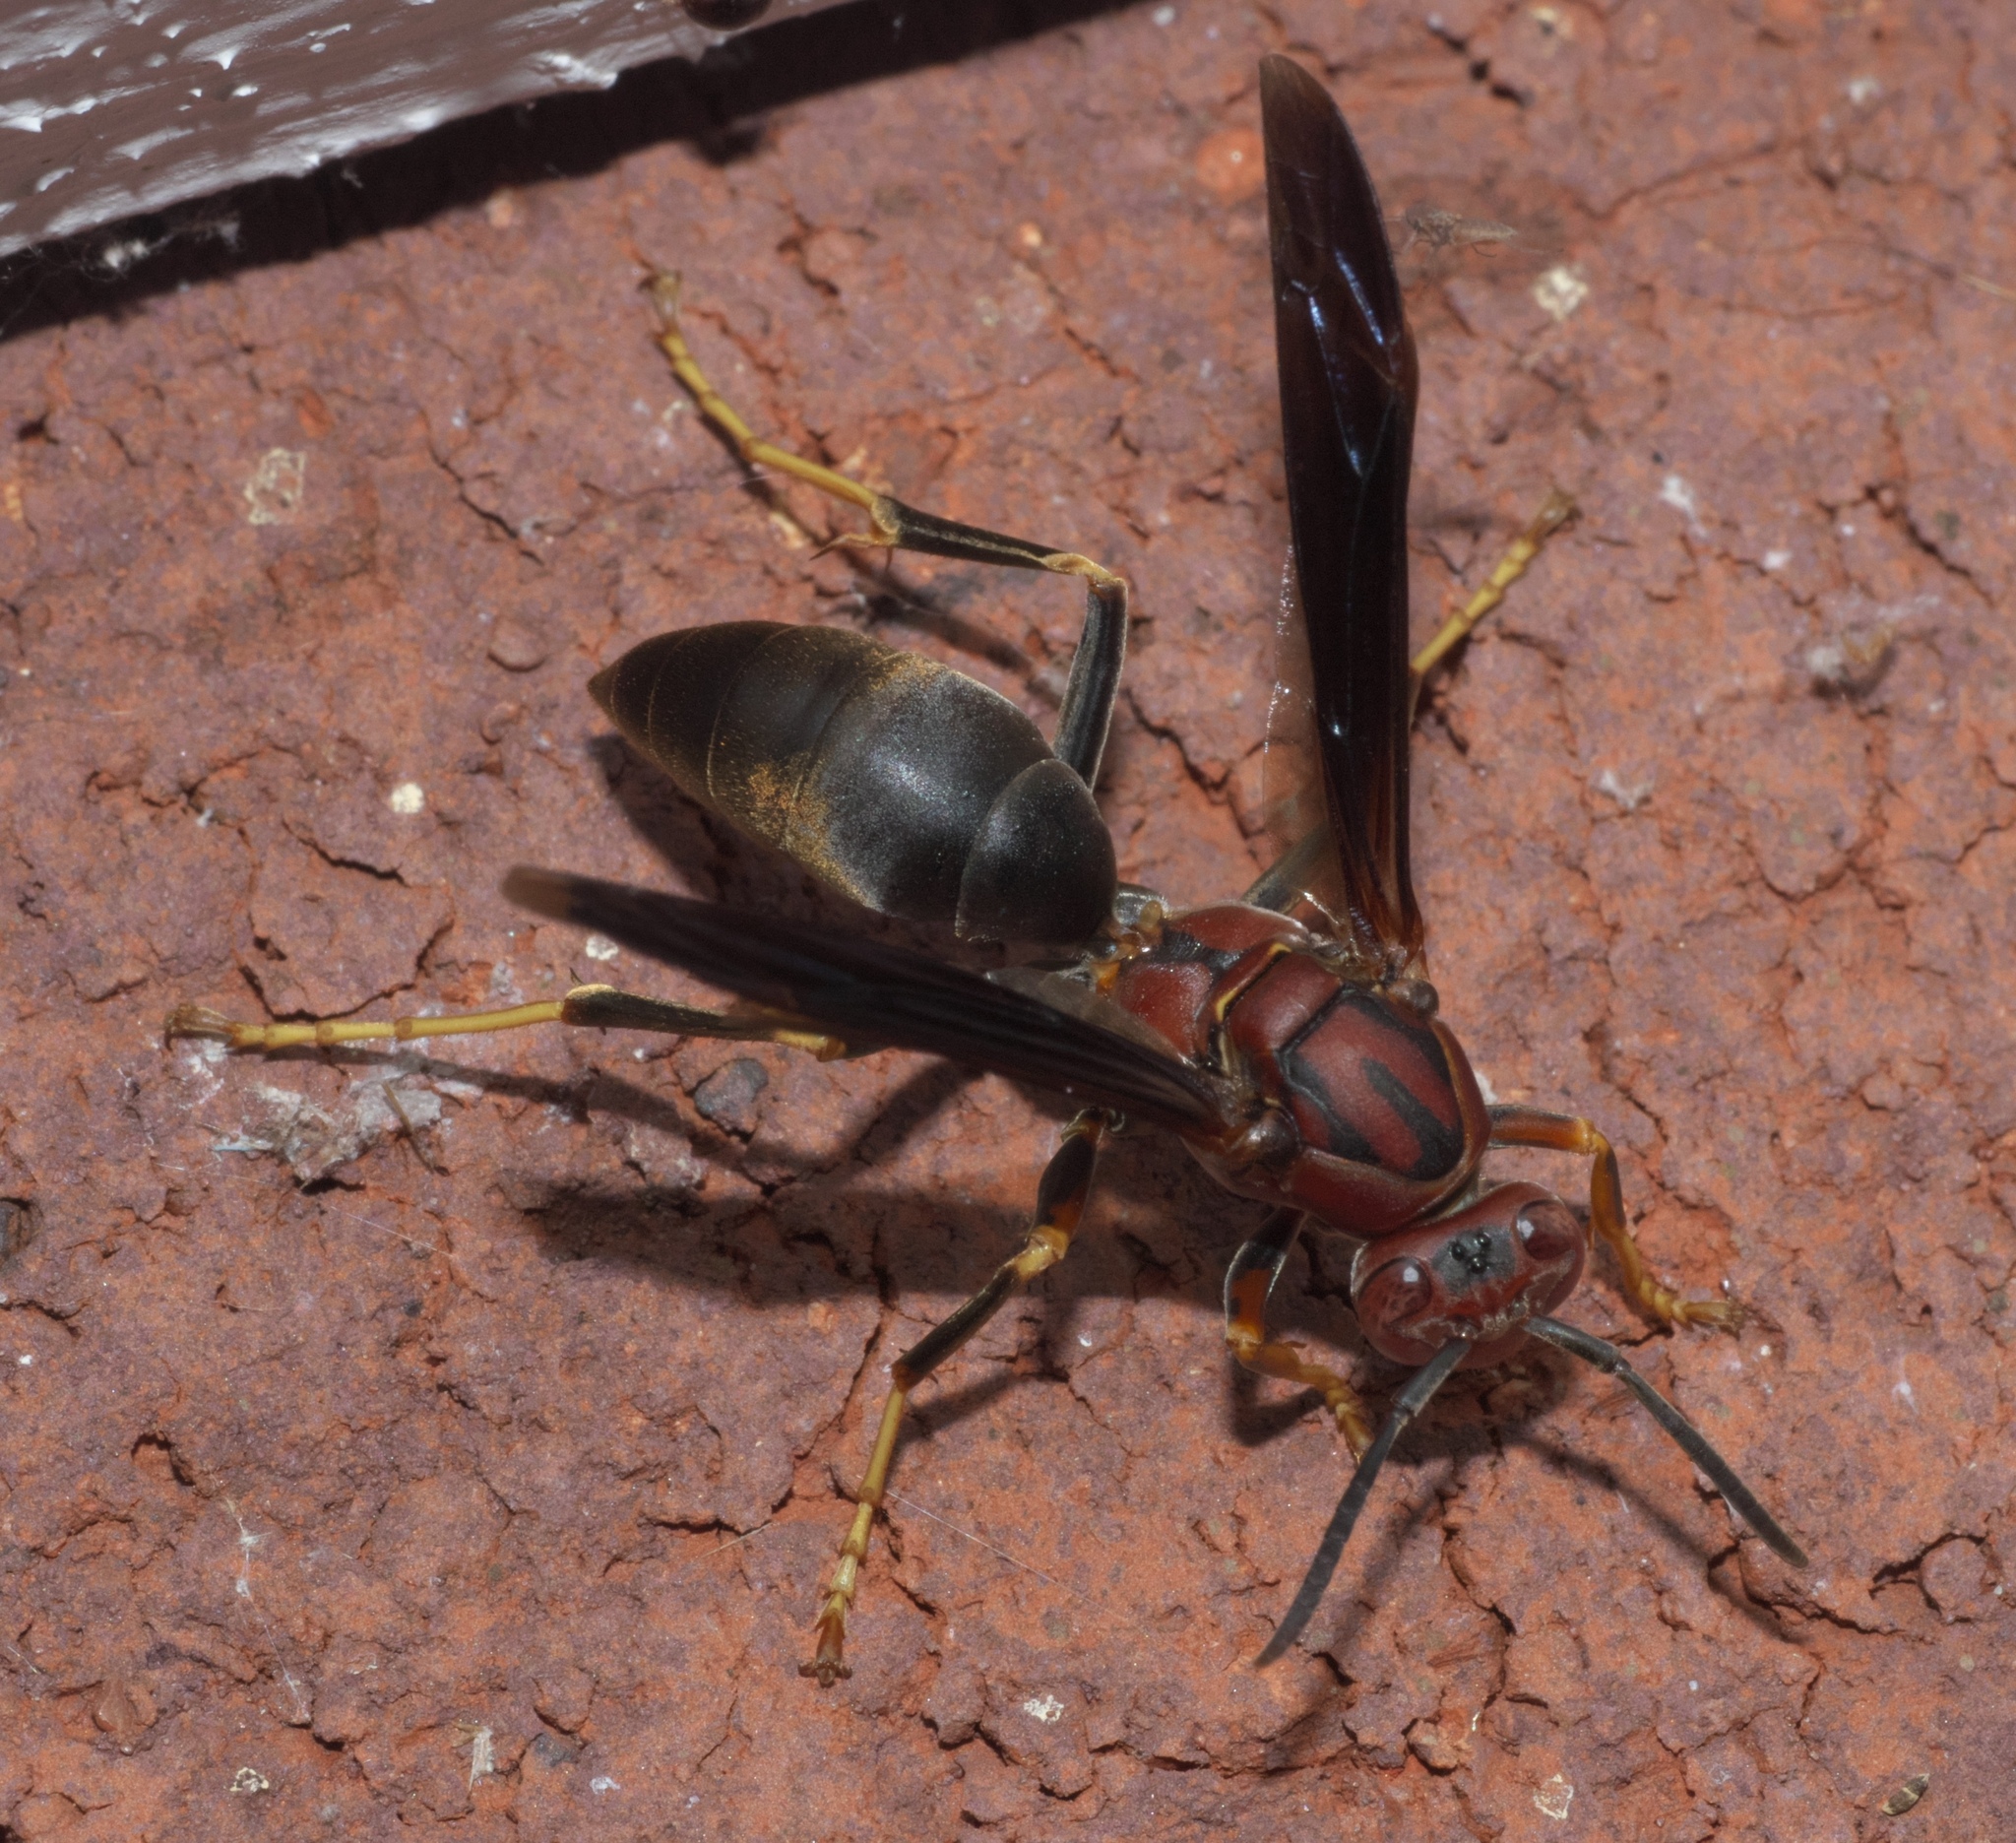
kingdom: Animalia
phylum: Arthropoda
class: Insecta
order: Hymenoptera
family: Eumenidae
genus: Polistes
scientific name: Polistes metricus
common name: Metric paper wasp
